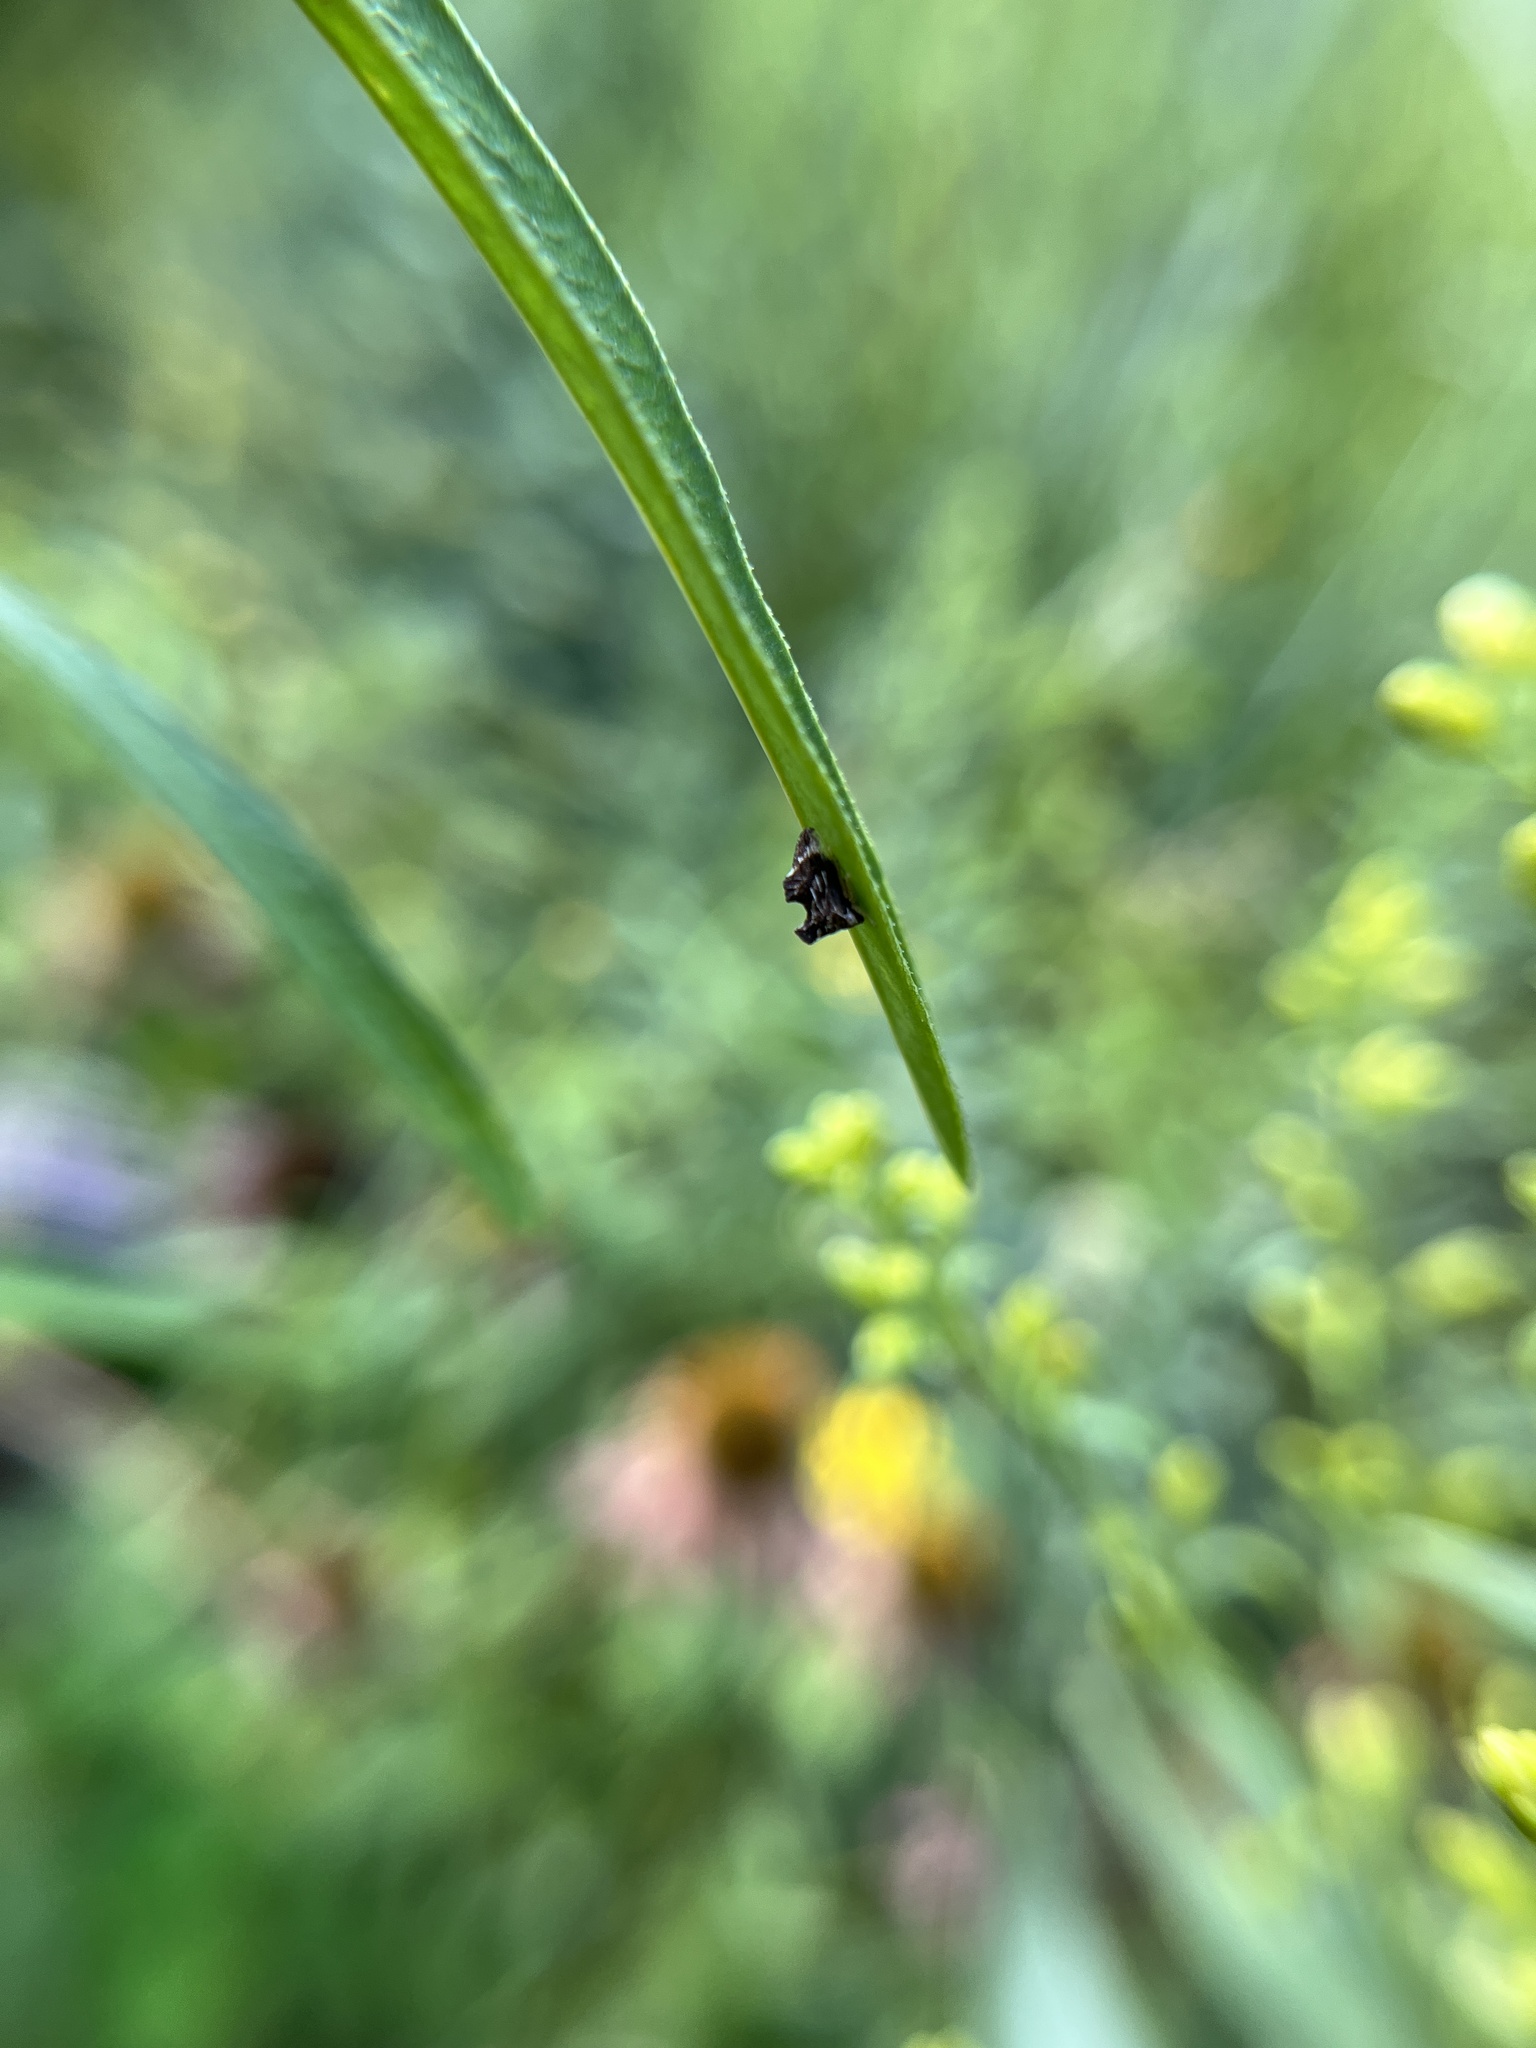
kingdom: Animalia
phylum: Arthropoda
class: Insecta
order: Hemiptera
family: Membracidae
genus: Entylia
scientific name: Entylia carinata
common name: Keeled treehopper
